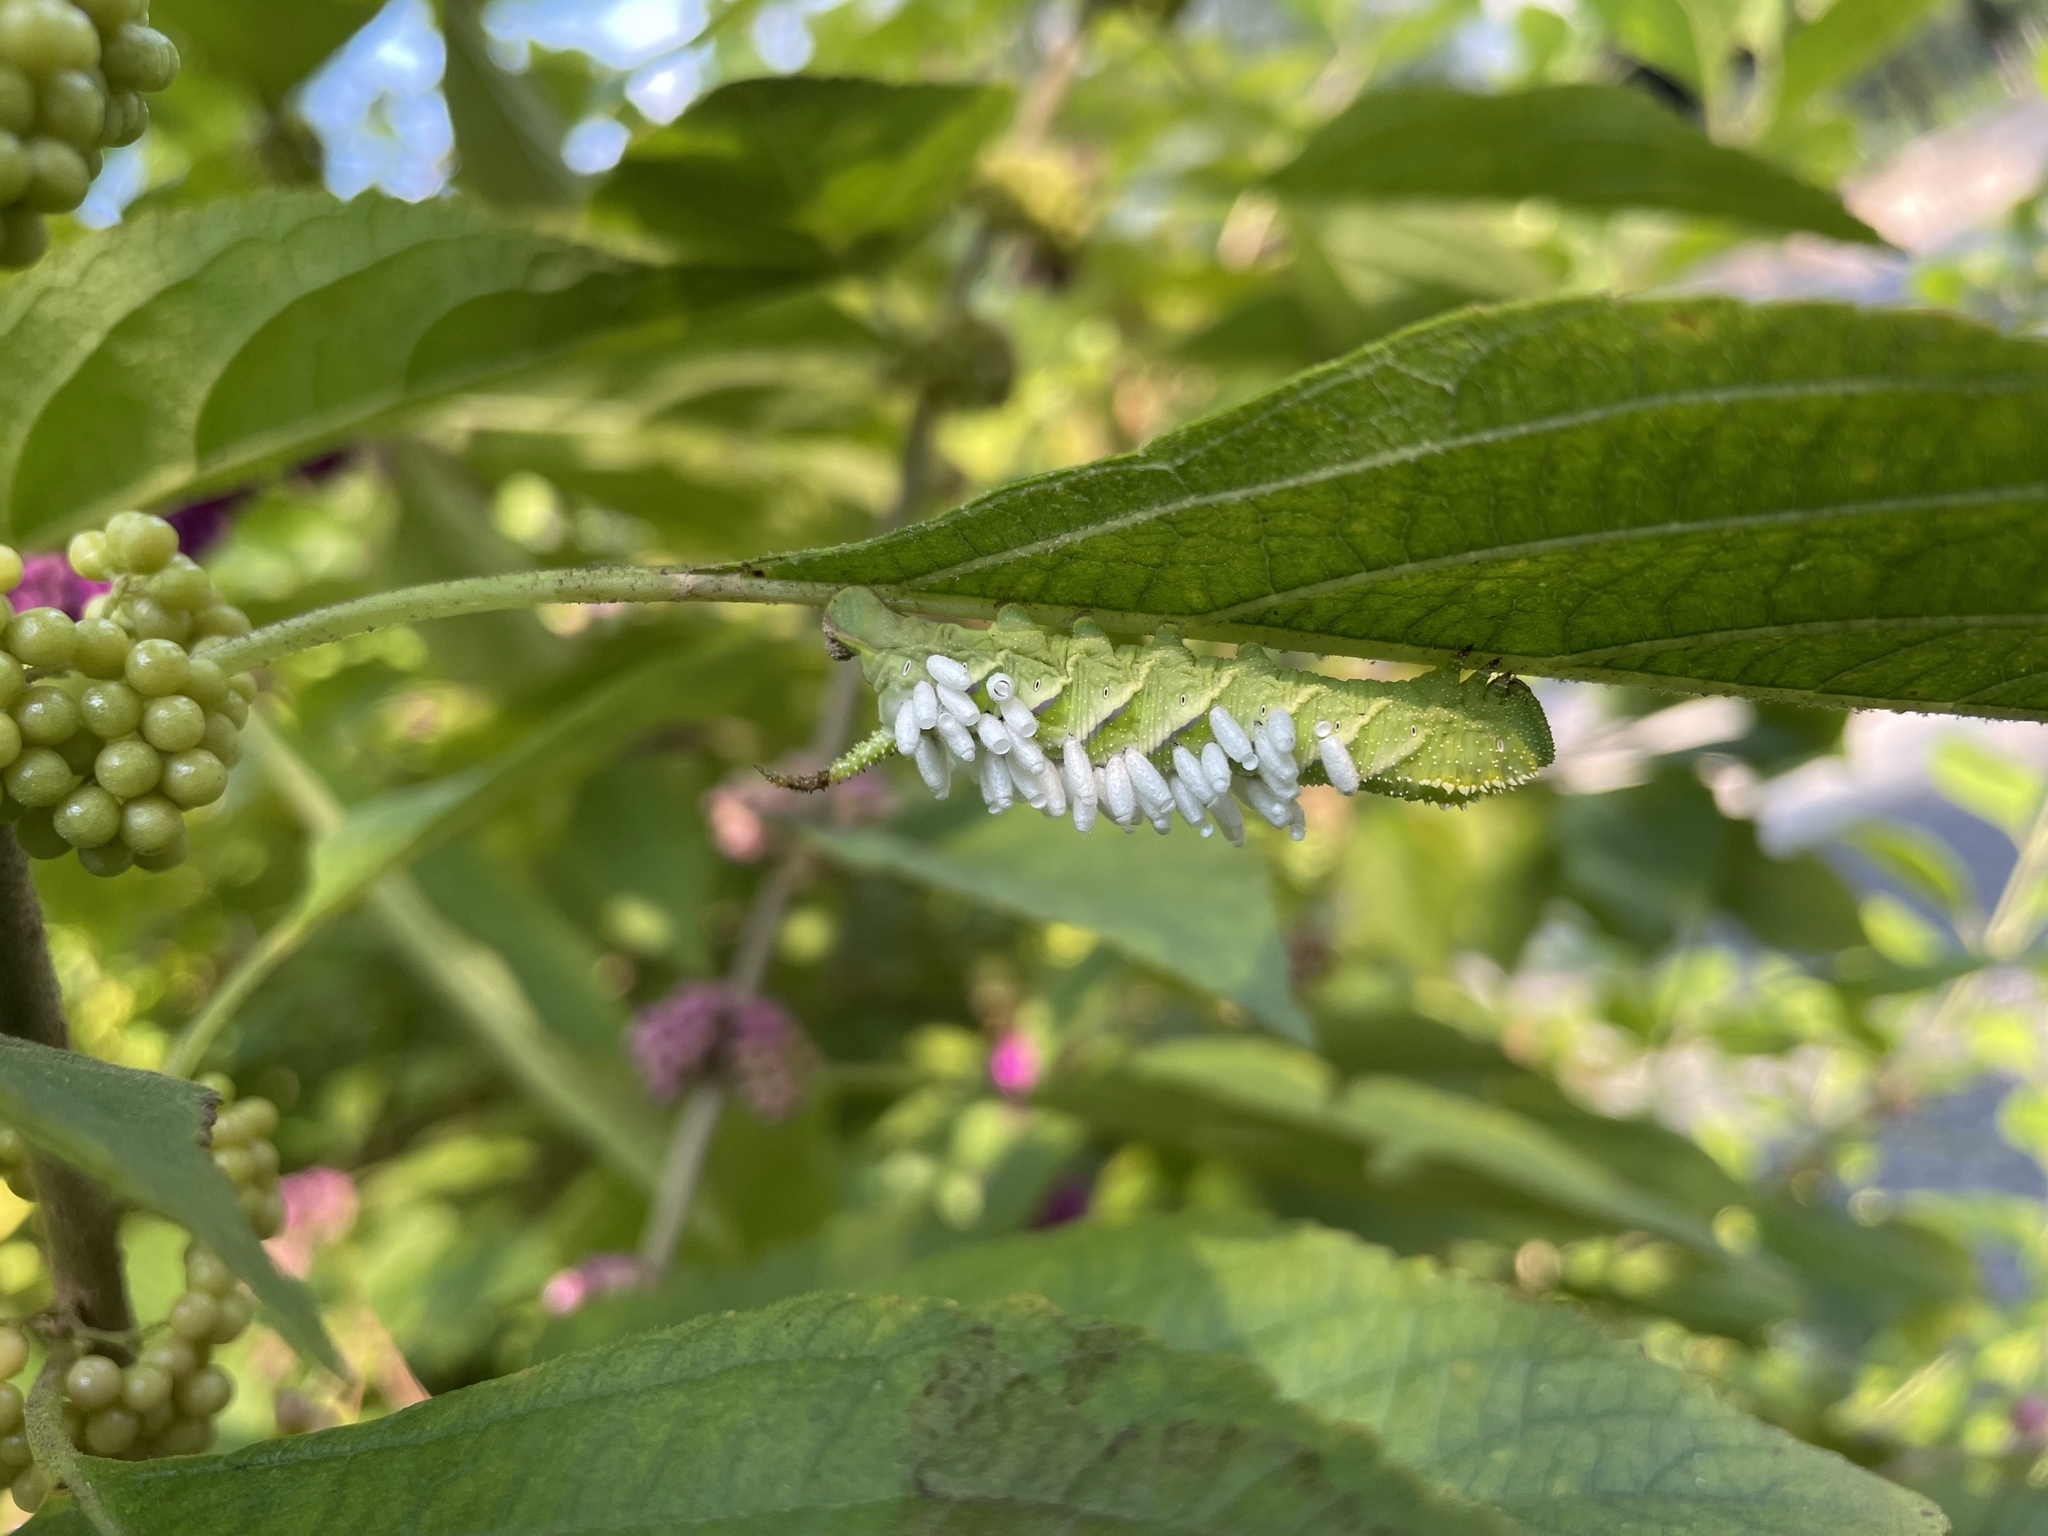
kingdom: Animalia
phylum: Arthropoda
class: Insecta
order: Lepidoptera
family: Sphingidae
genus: Manduca
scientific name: Manduca rustica
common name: Rustic sphinx
